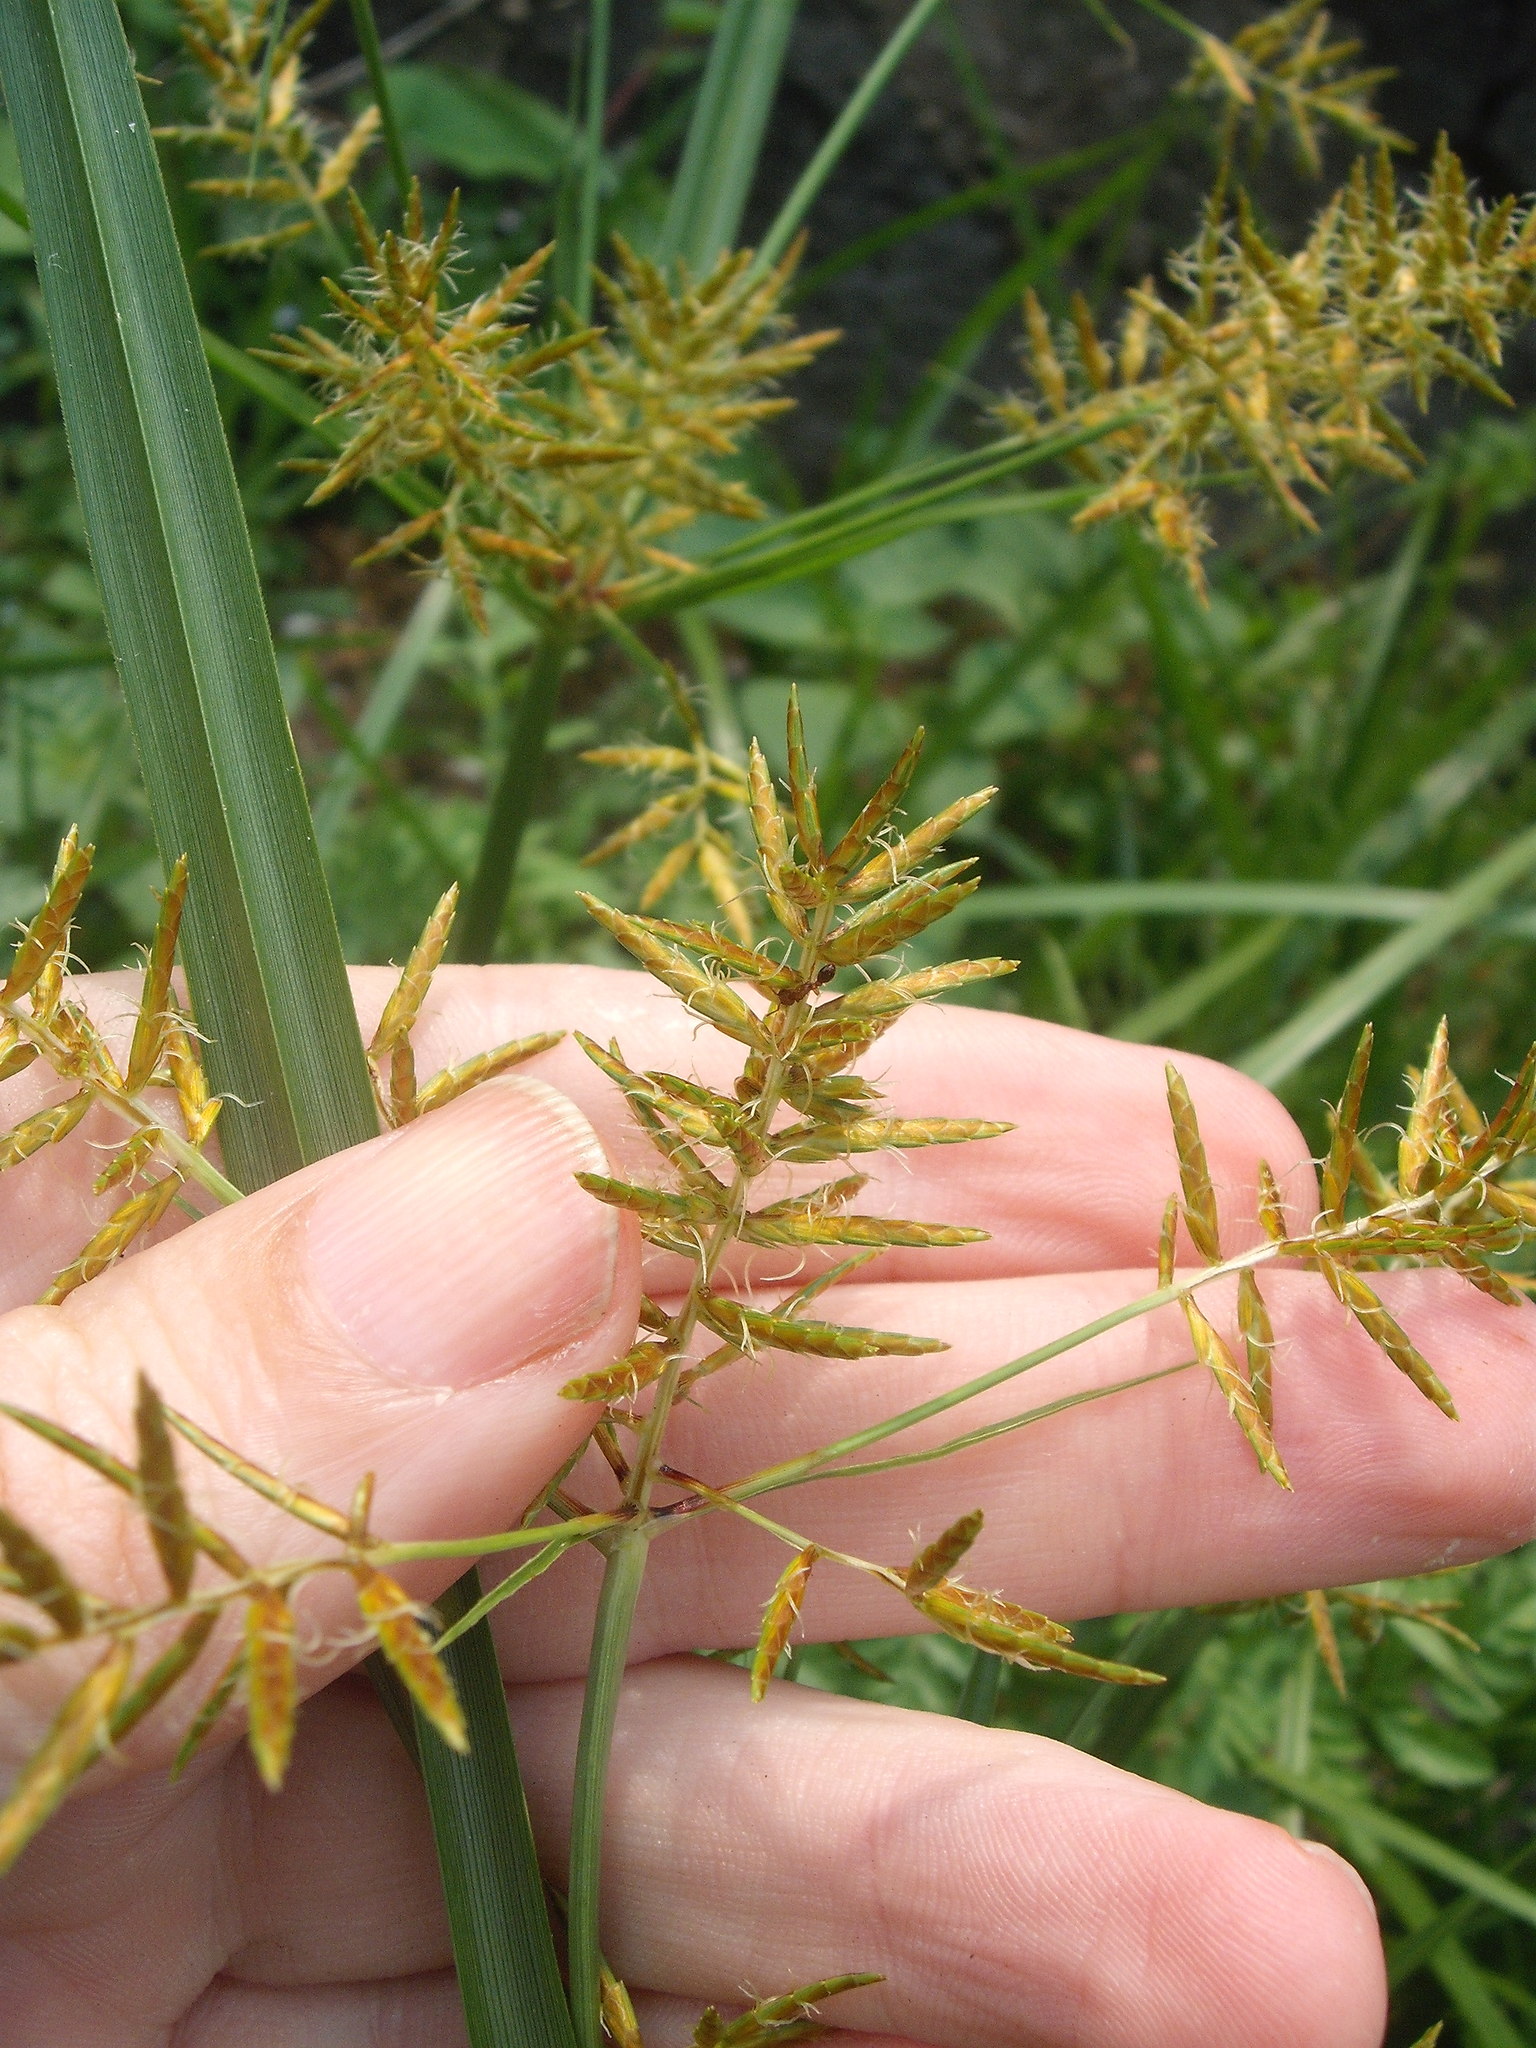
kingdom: Plantae
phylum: Tracheophyta
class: Liliopsida
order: Poales
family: Cyperaceae
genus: Cyperus
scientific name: Cyperus esculentus
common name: Yellow nutsedge
